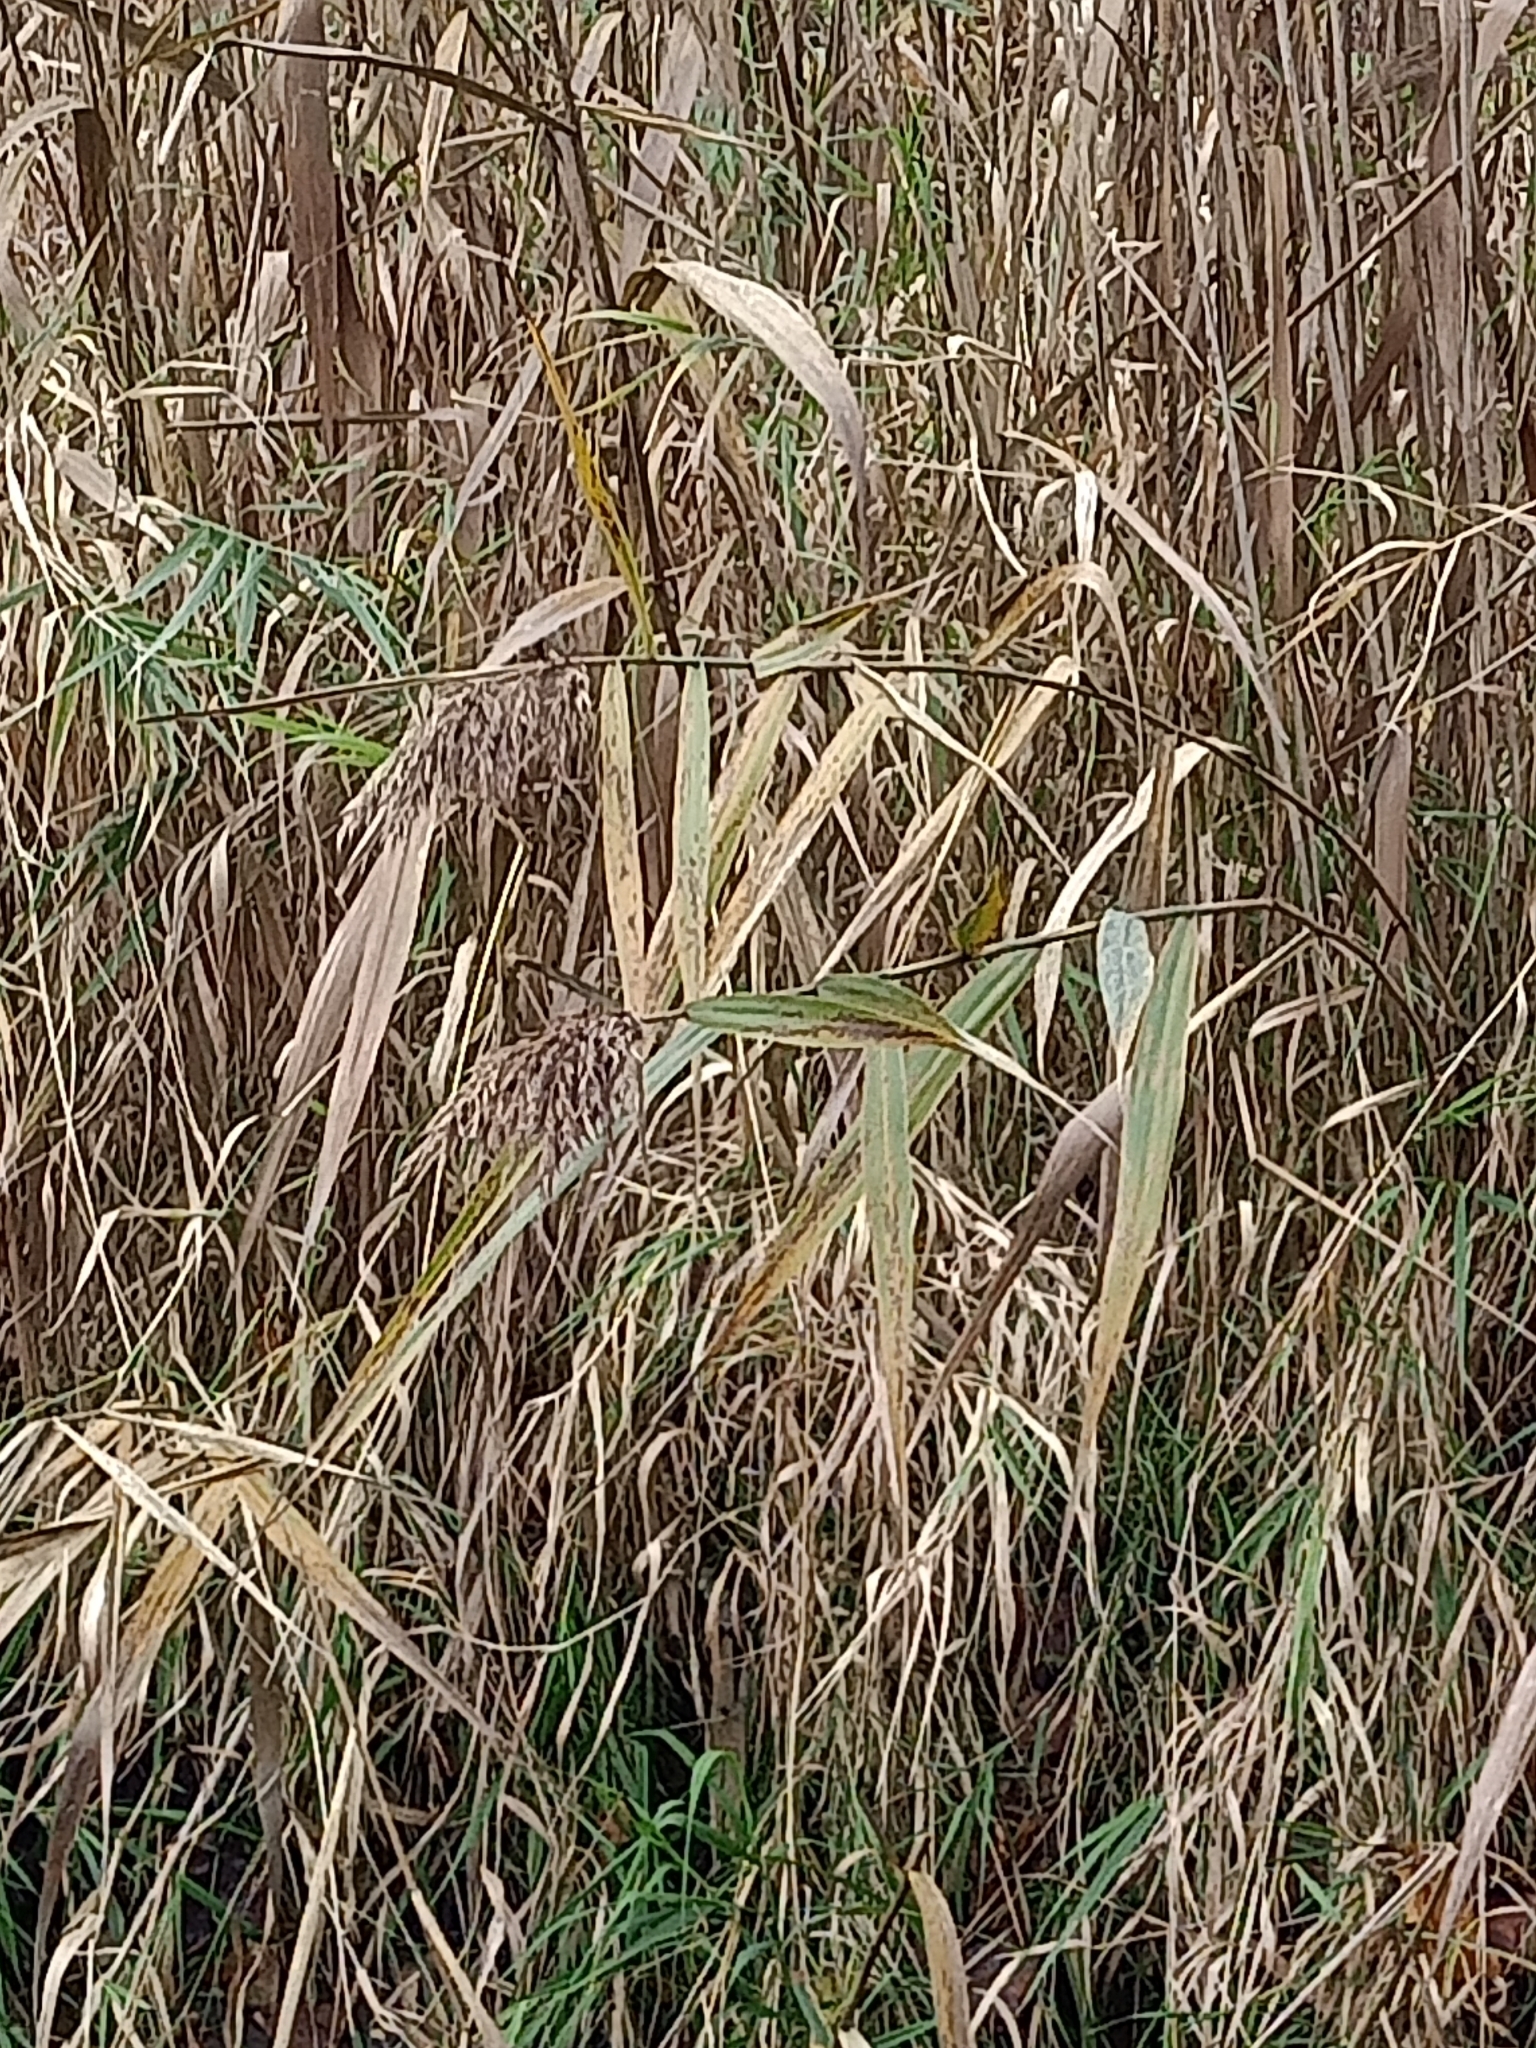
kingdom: Plantae
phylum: Tracheophyta
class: Liliopsida
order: Poales
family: Poaceae
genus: Phragmites
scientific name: Phragmites australis
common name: Common reed
